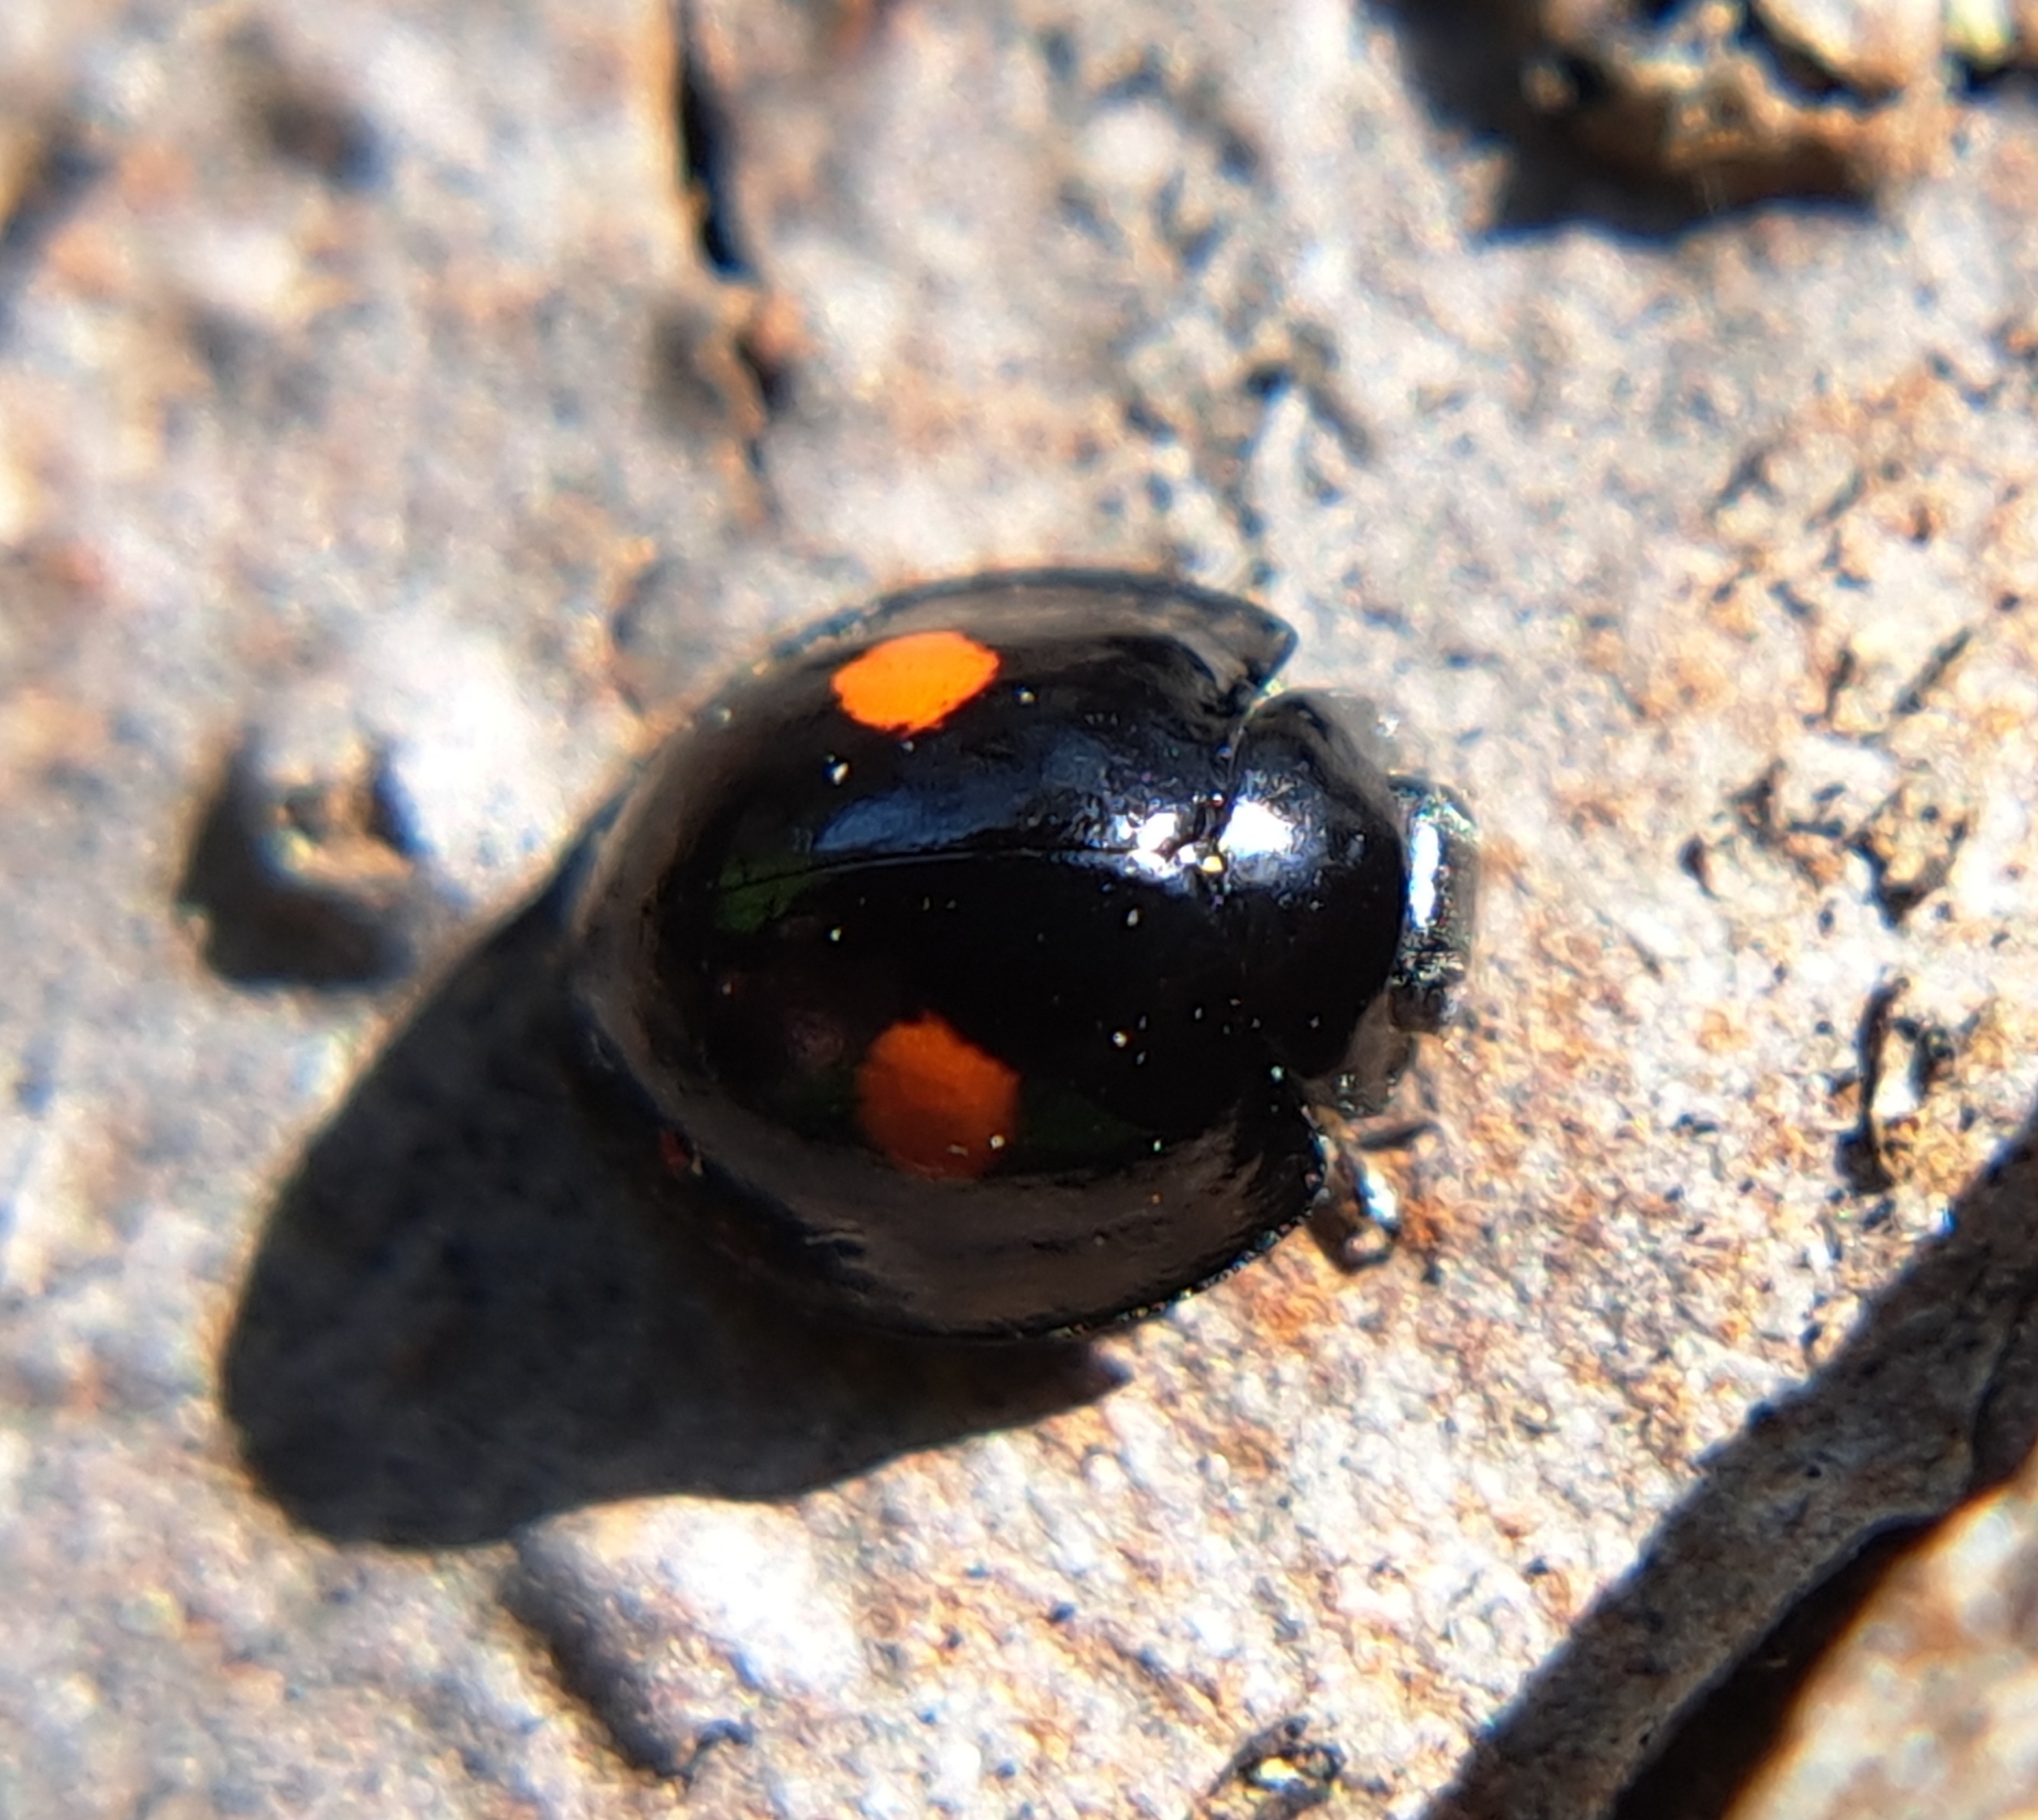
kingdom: Animalia
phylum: Arthropoda
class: Insecta
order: Coleoptera
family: Coccinellidae
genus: Chilocorus
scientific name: Chilocorus stigma
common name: Twicestabbed lady beetle
